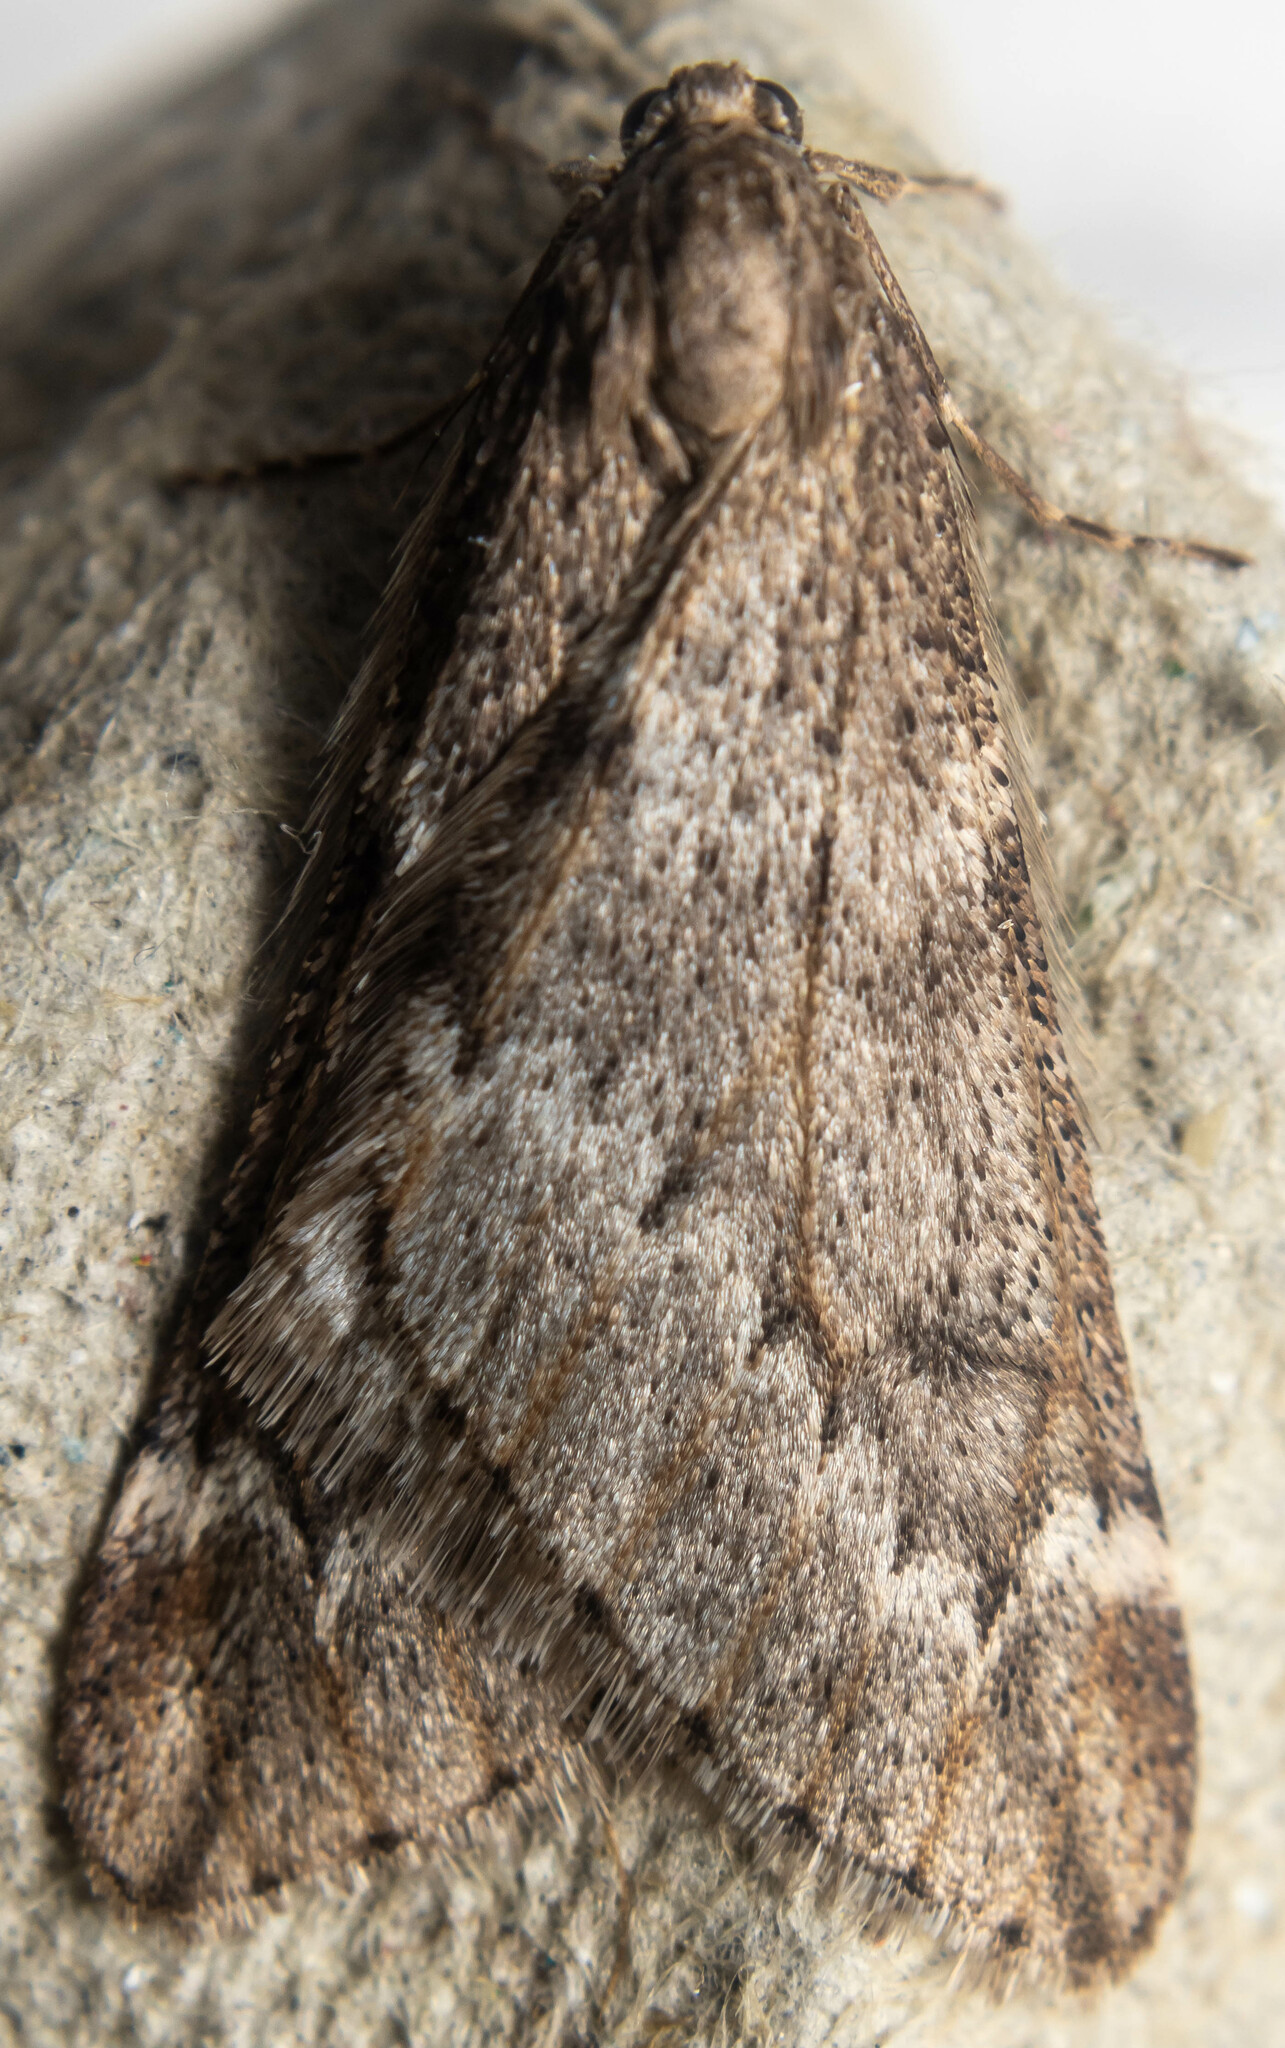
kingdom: Animalia
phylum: Arthropoda
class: Insecta
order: Lepidoptera
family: Geometridae
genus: Alsophila
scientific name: Alsophila aescularia
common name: March moth
